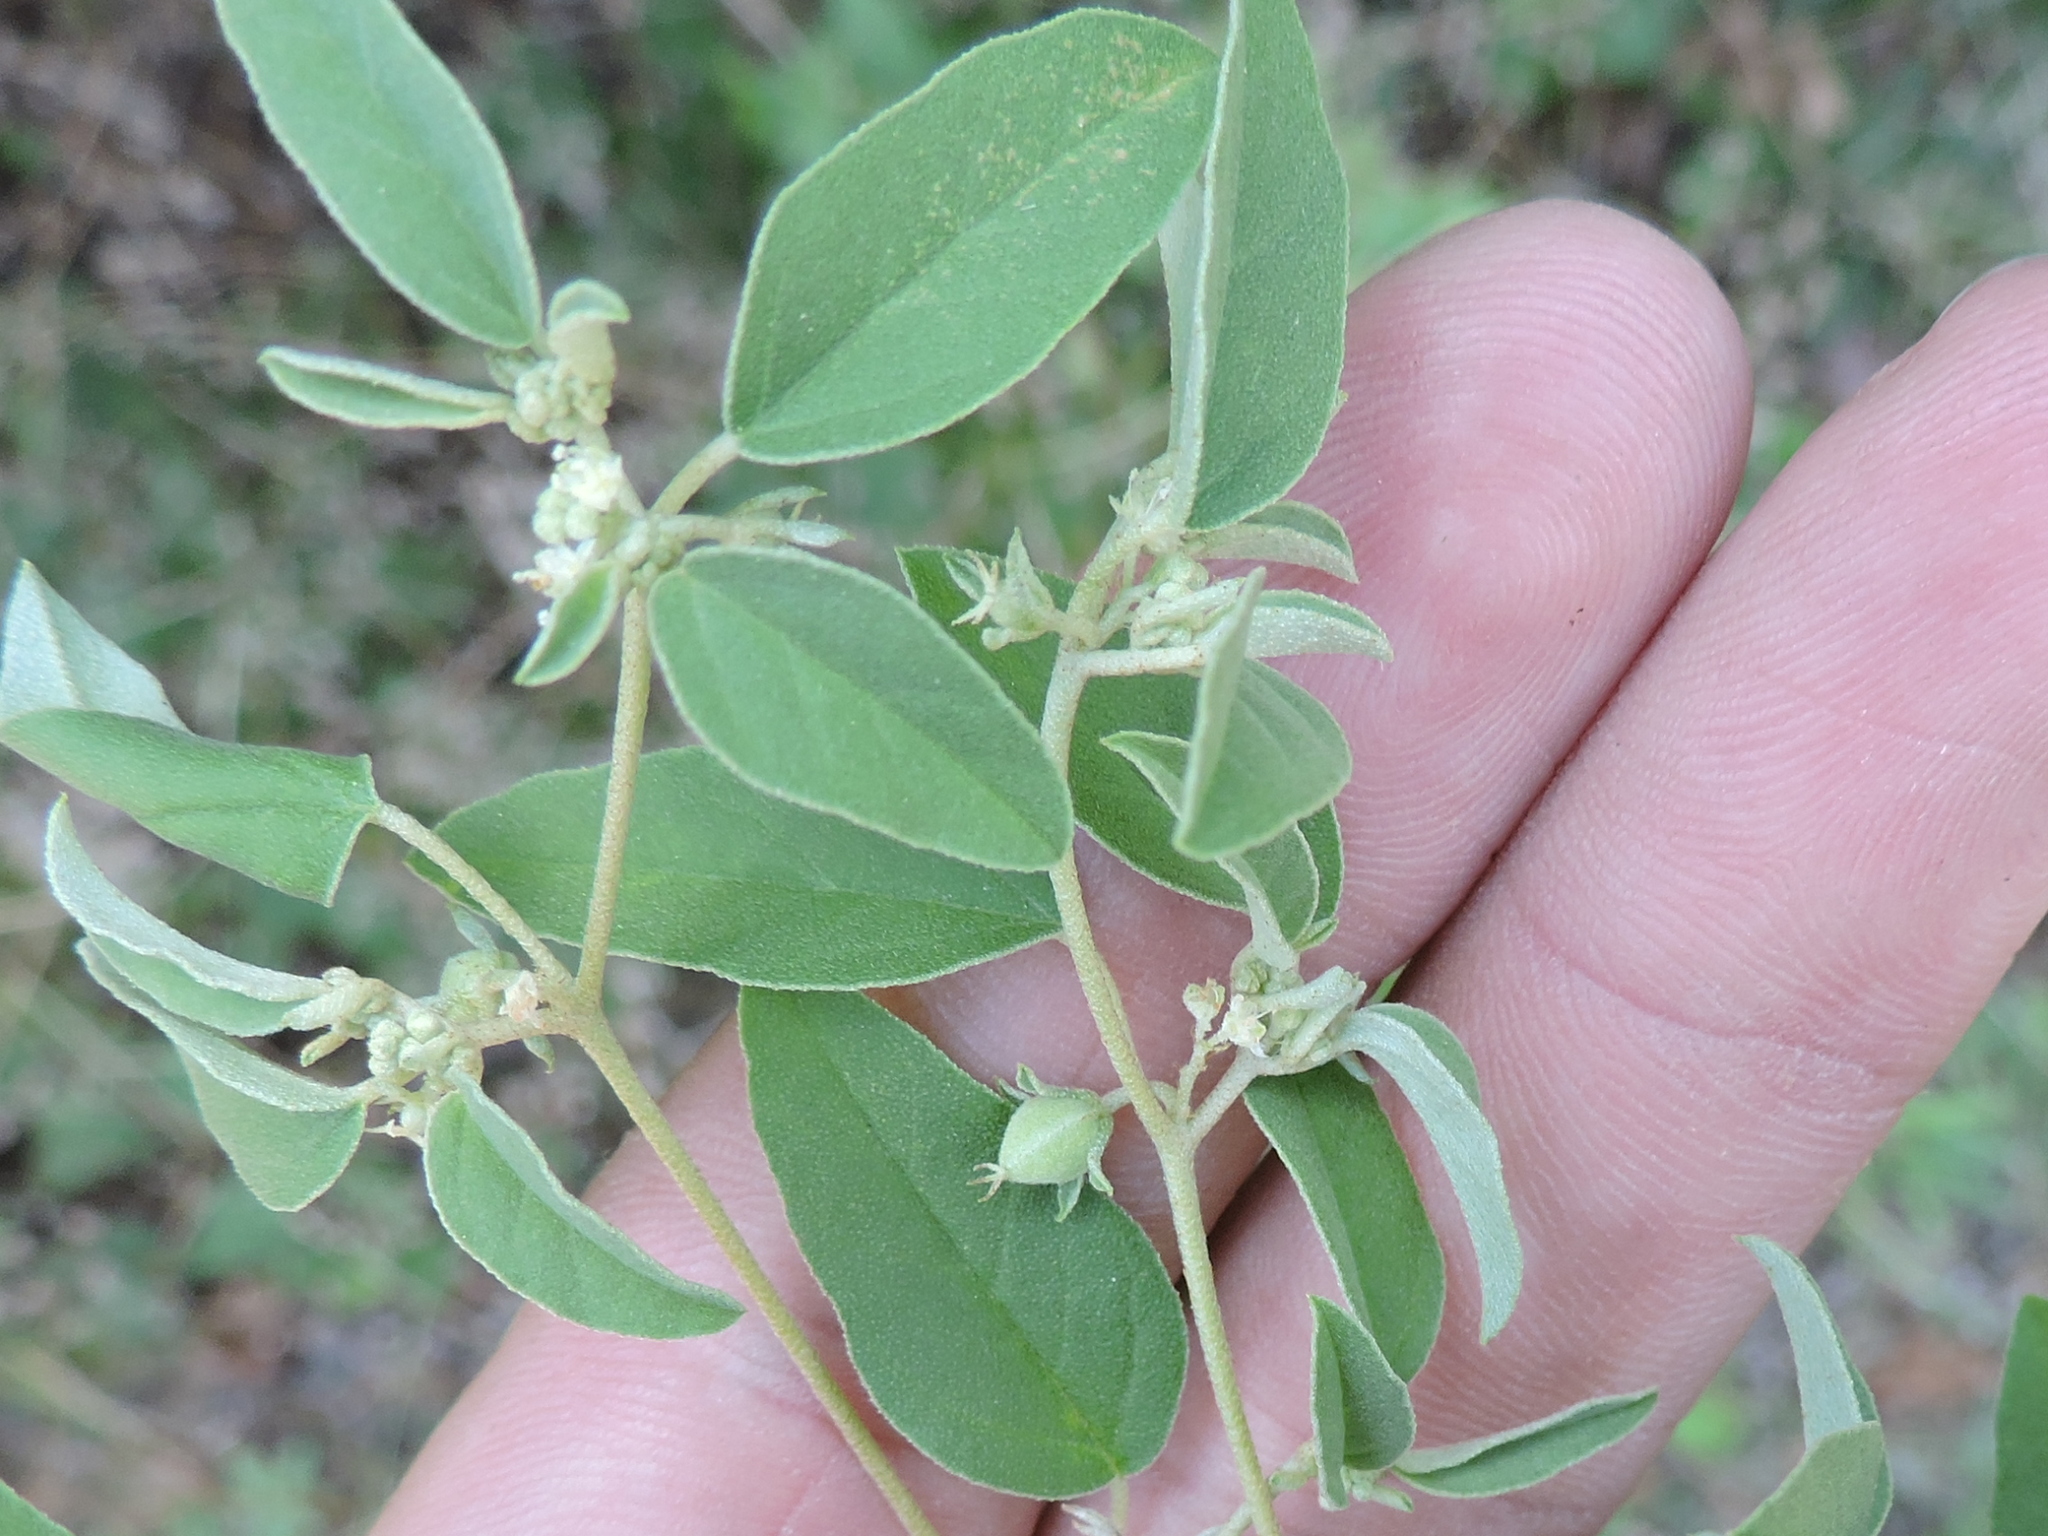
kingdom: Plantae
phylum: Tracheophyta
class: Magnoliopsida
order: Malpighiales
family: Euphorbiaceae
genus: Croton
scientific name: Croton monanthogynus
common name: One-seed croton
